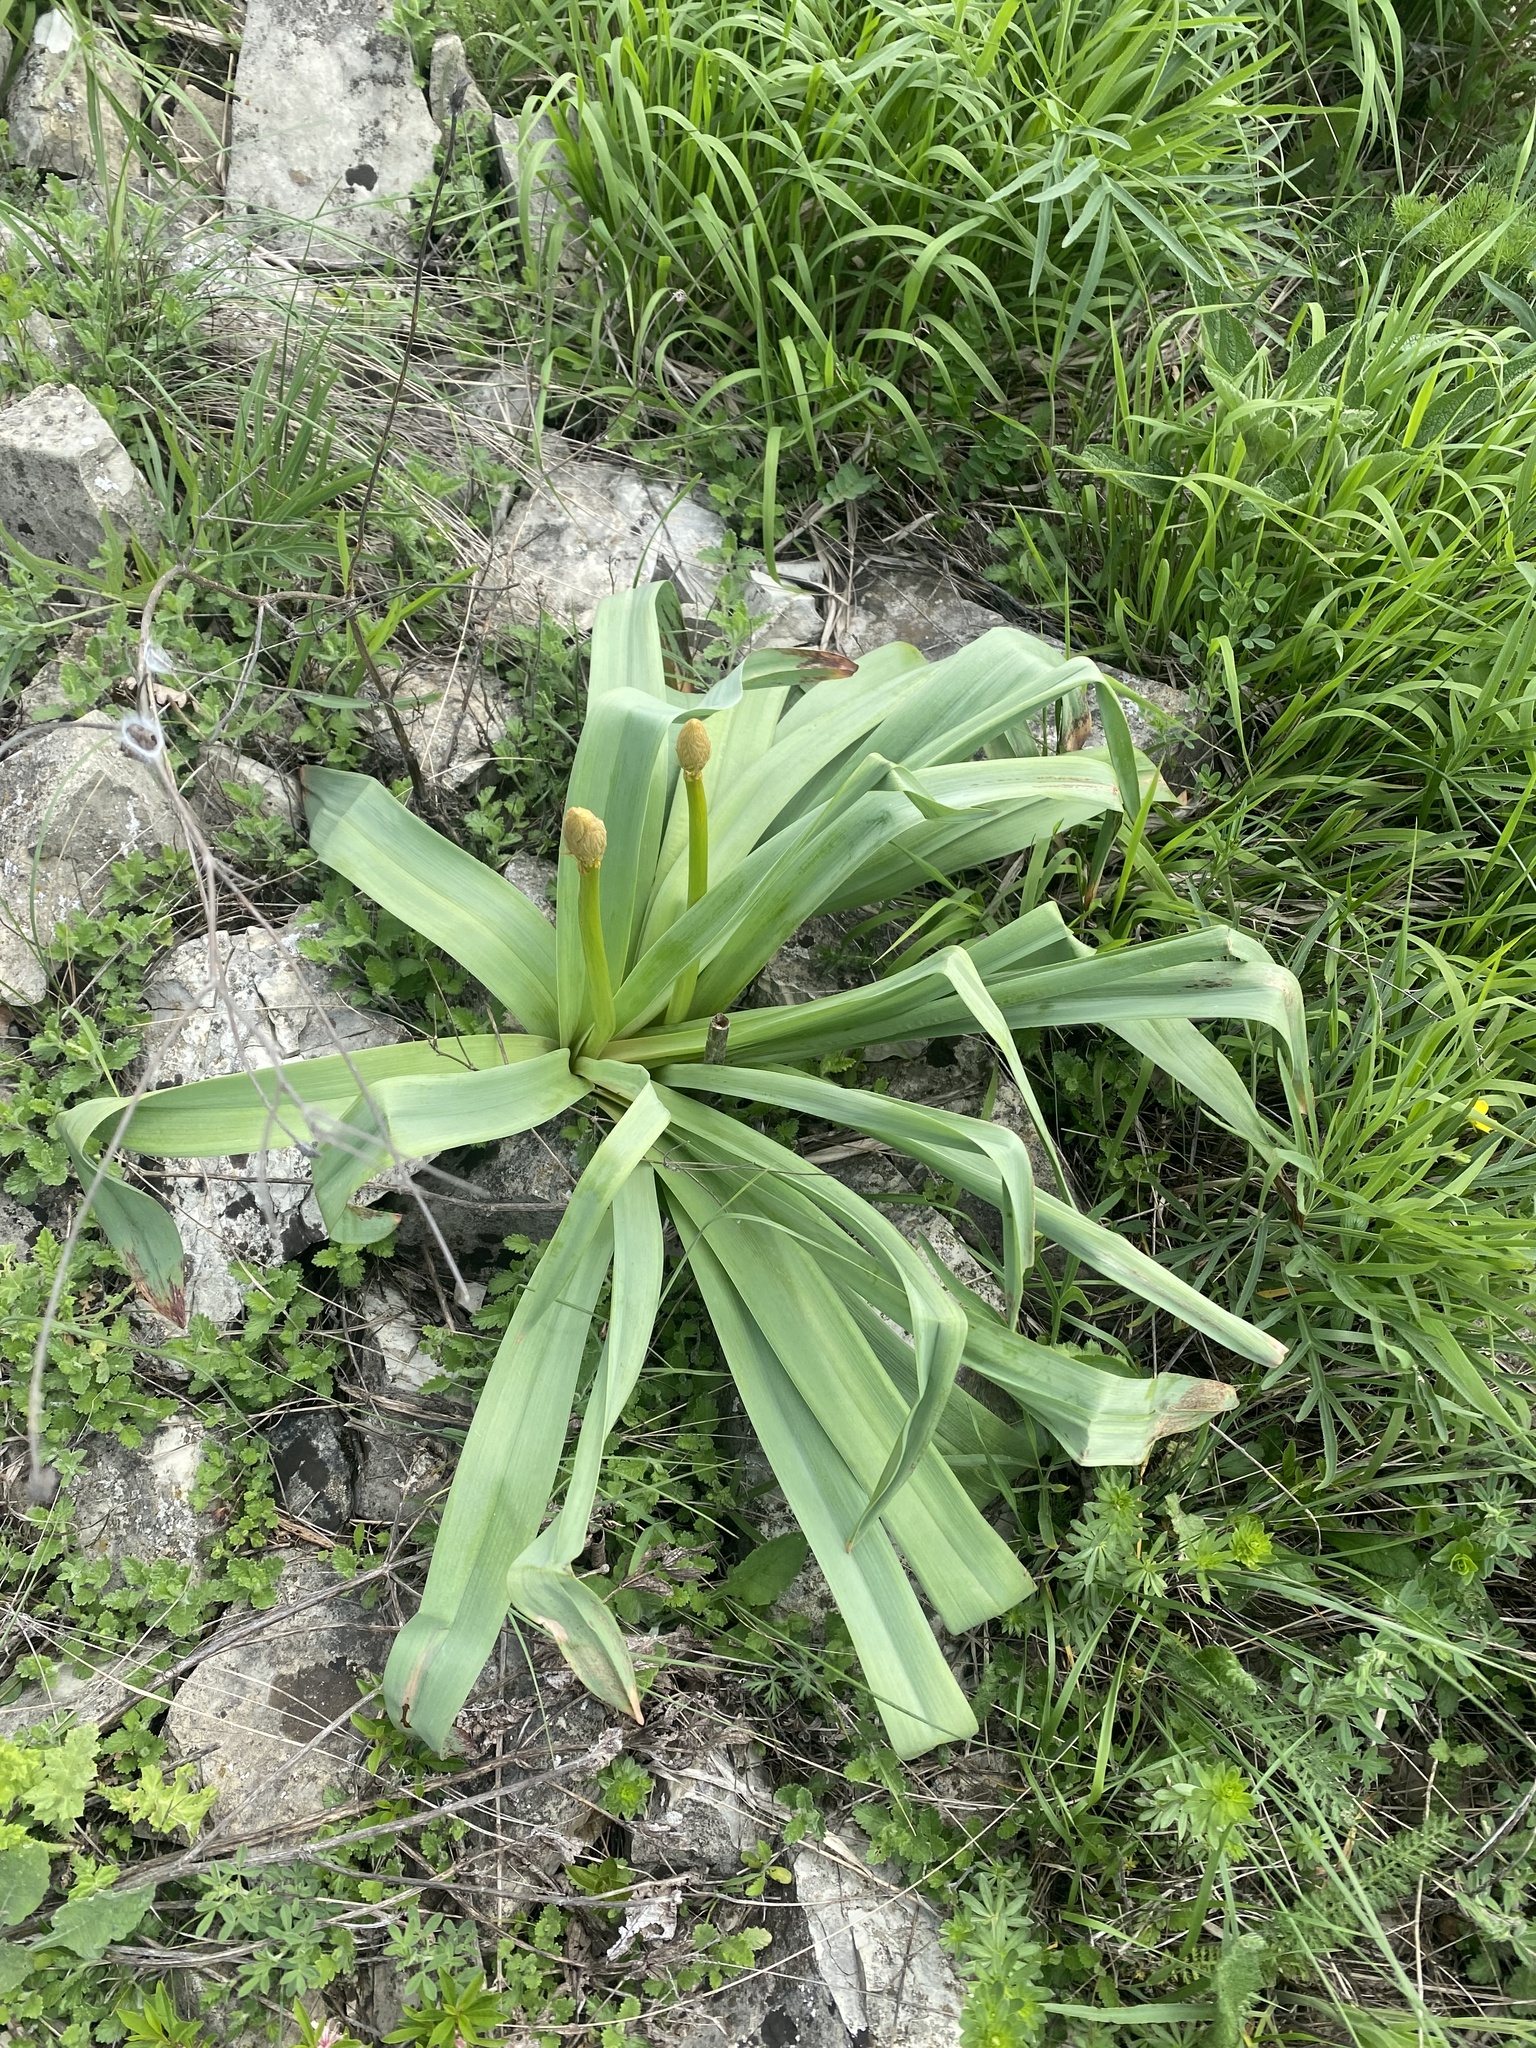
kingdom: Plantae
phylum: Tracheophyta
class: Liliopsida
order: Asparagales
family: Asphodelaceae
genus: Eremurus
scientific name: Eremurus spectabilis
